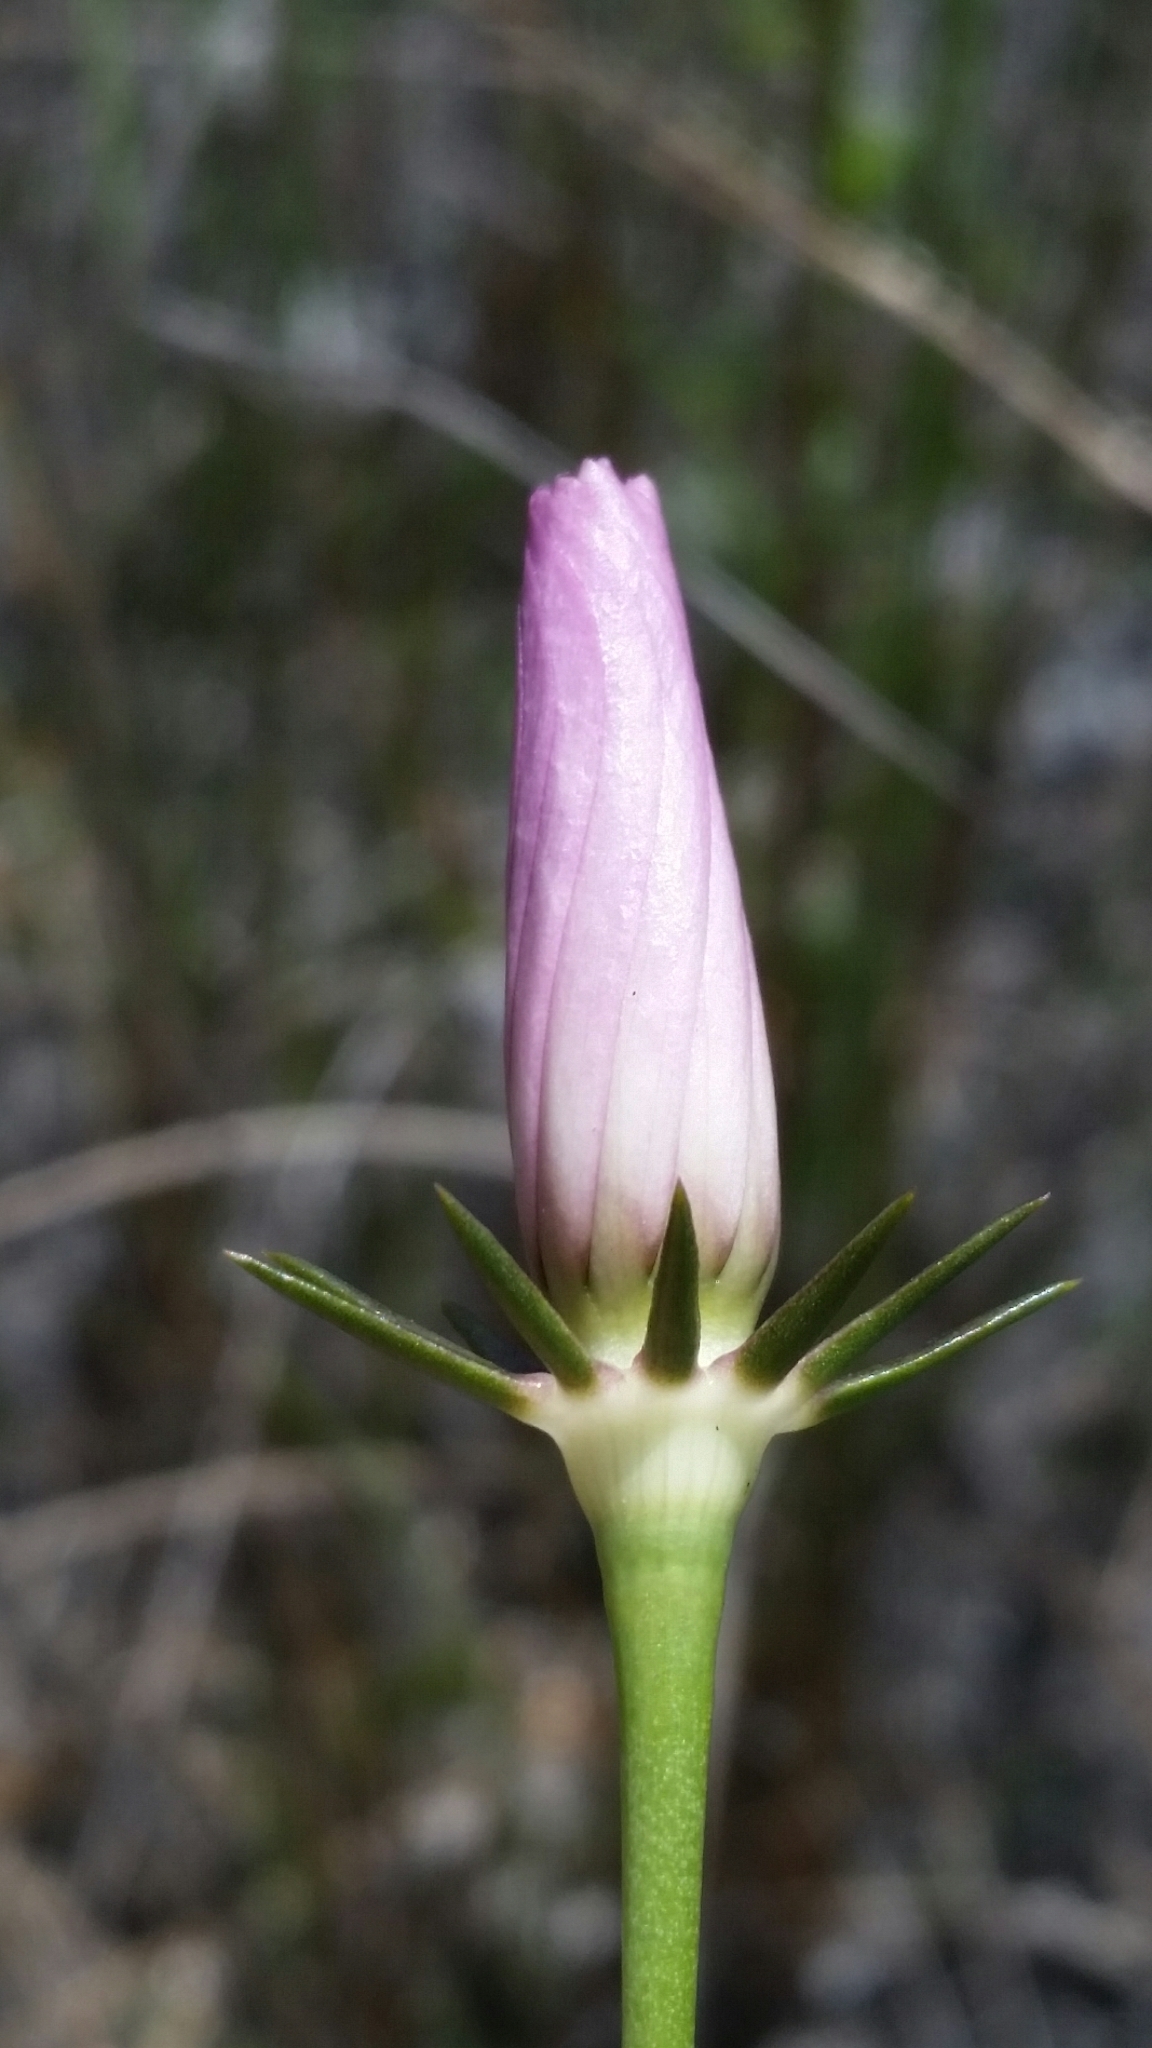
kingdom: Plantae
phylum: Tracheophyta
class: Magnoliopsida
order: Gentianales
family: Gentianaceae
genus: Sabatia
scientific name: Sabatia decandra
